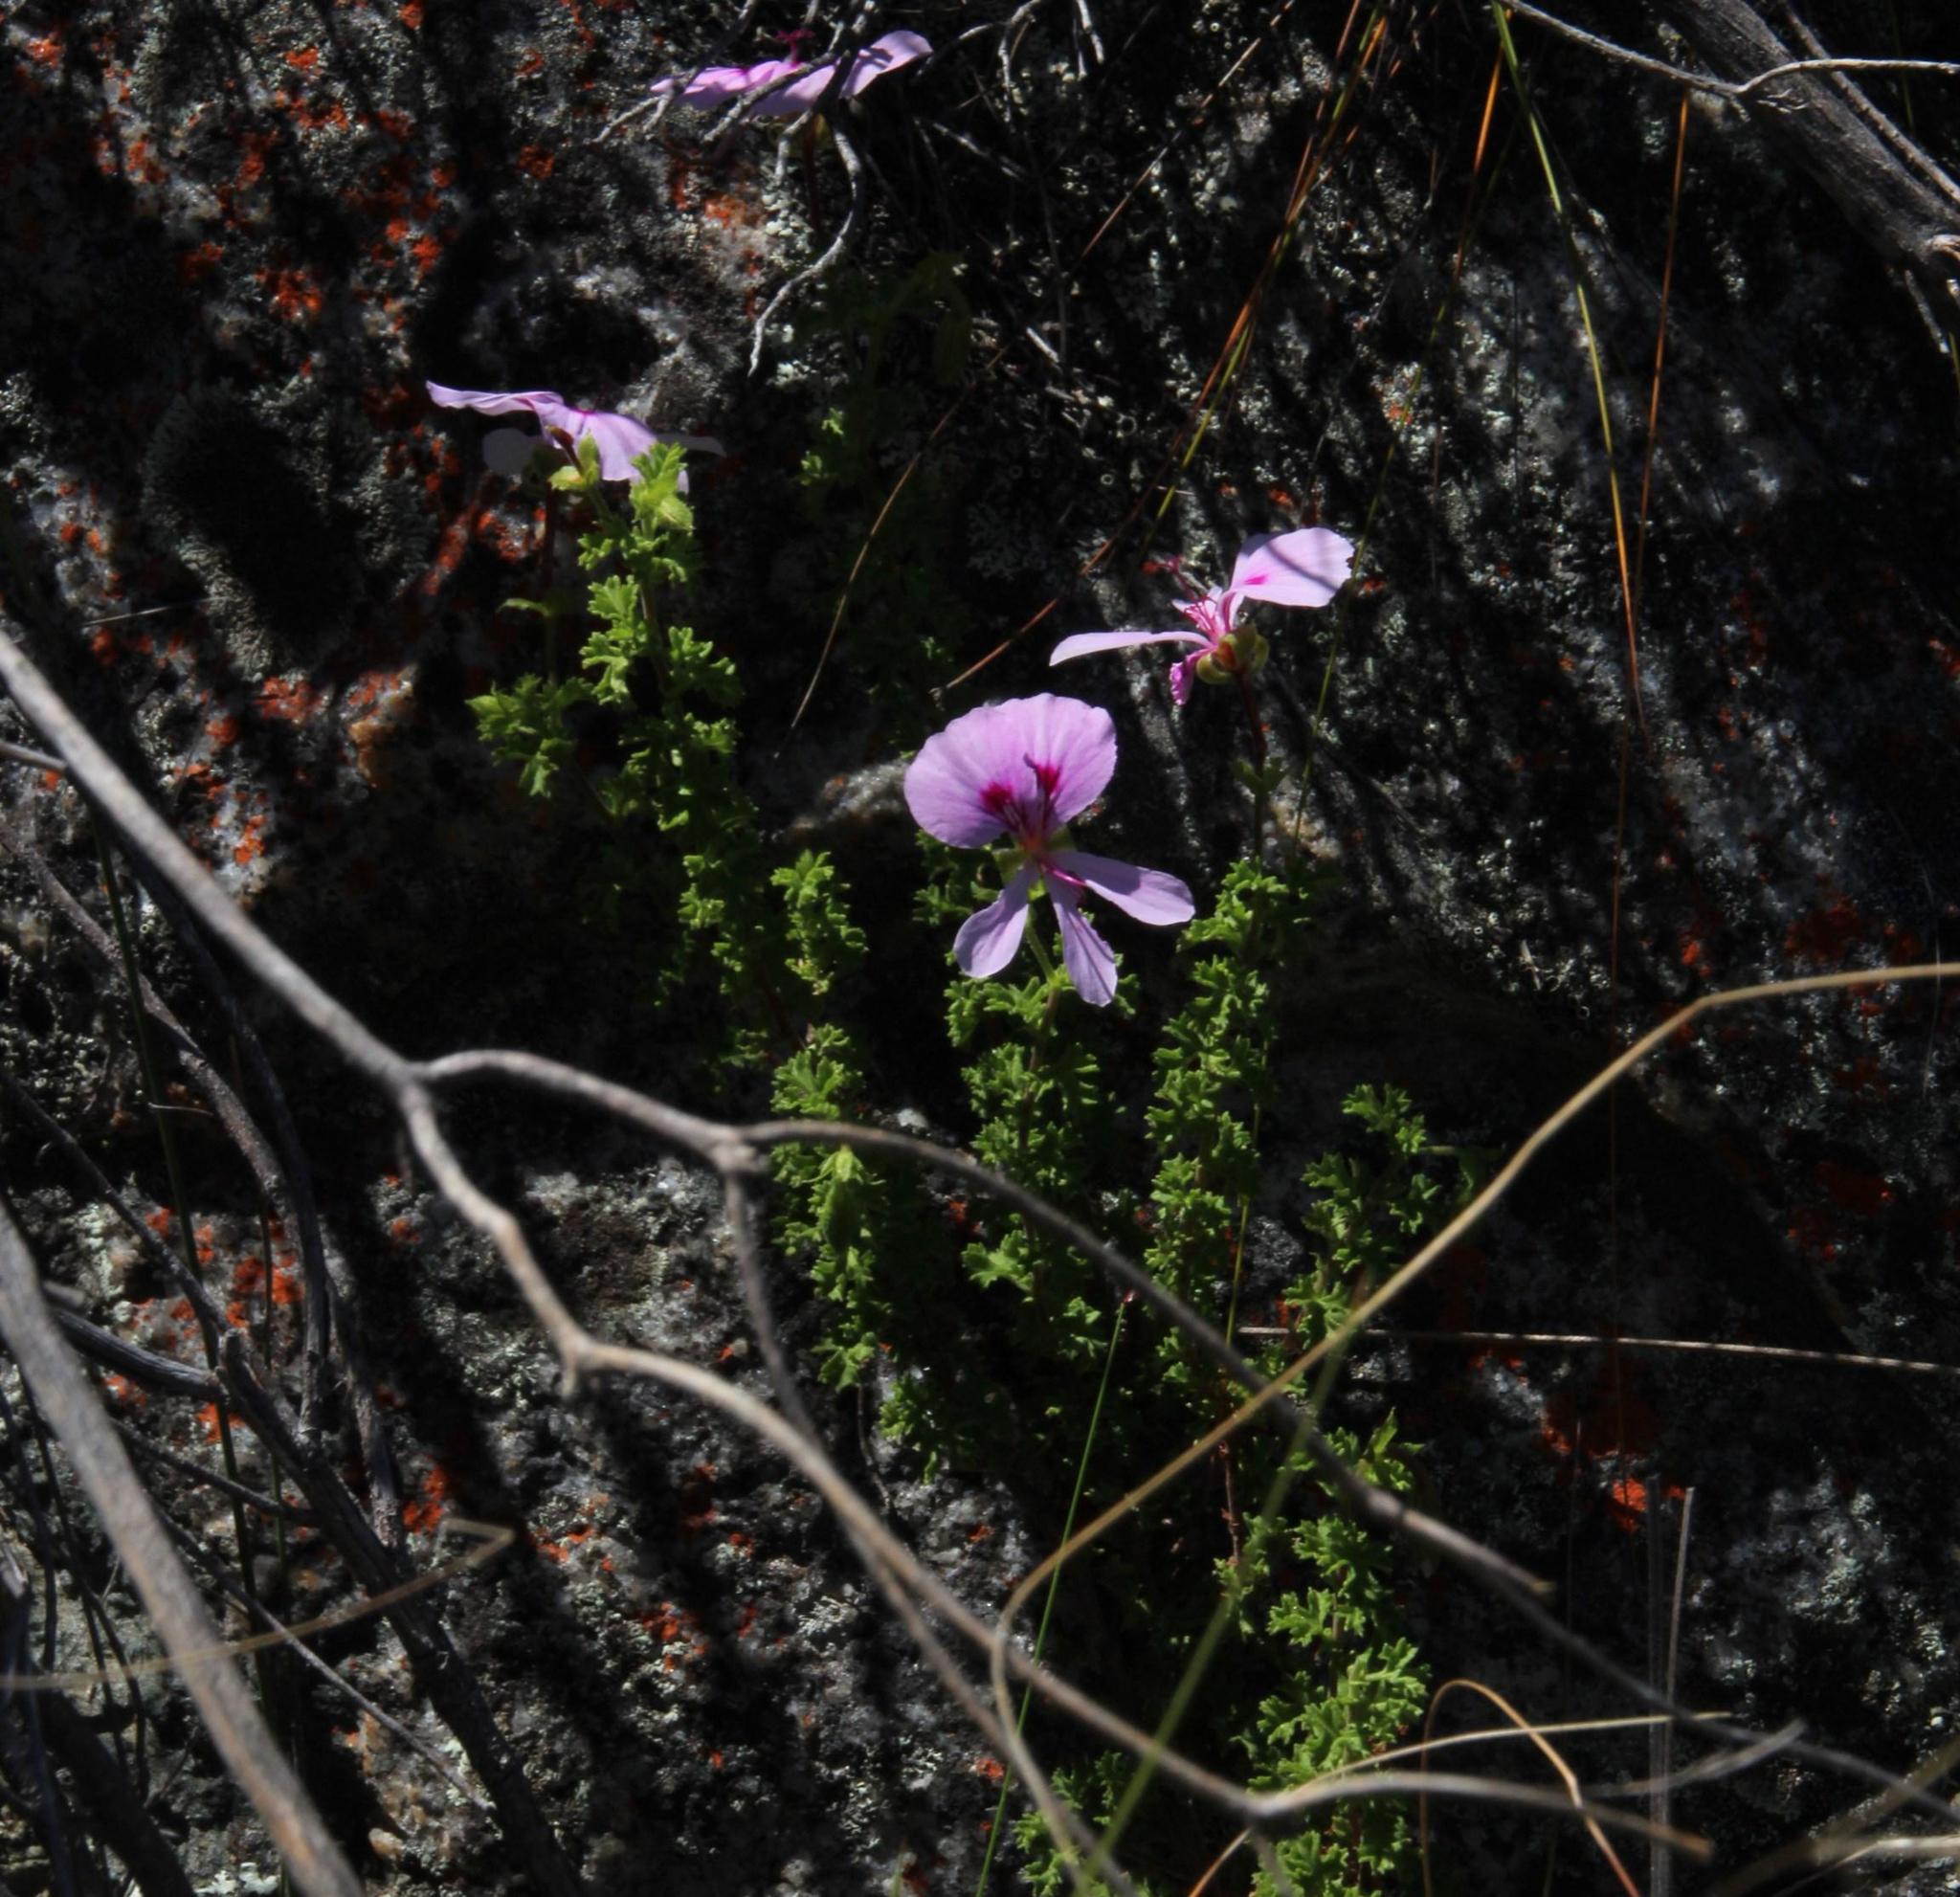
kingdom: Plantae
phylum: Tracheophyta
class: Magnoliopsida
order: Geraniales
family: Geraniaceae
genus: Pelargonium
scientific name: Pelargonium crispum
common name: Crisped-leaf pelargonium
